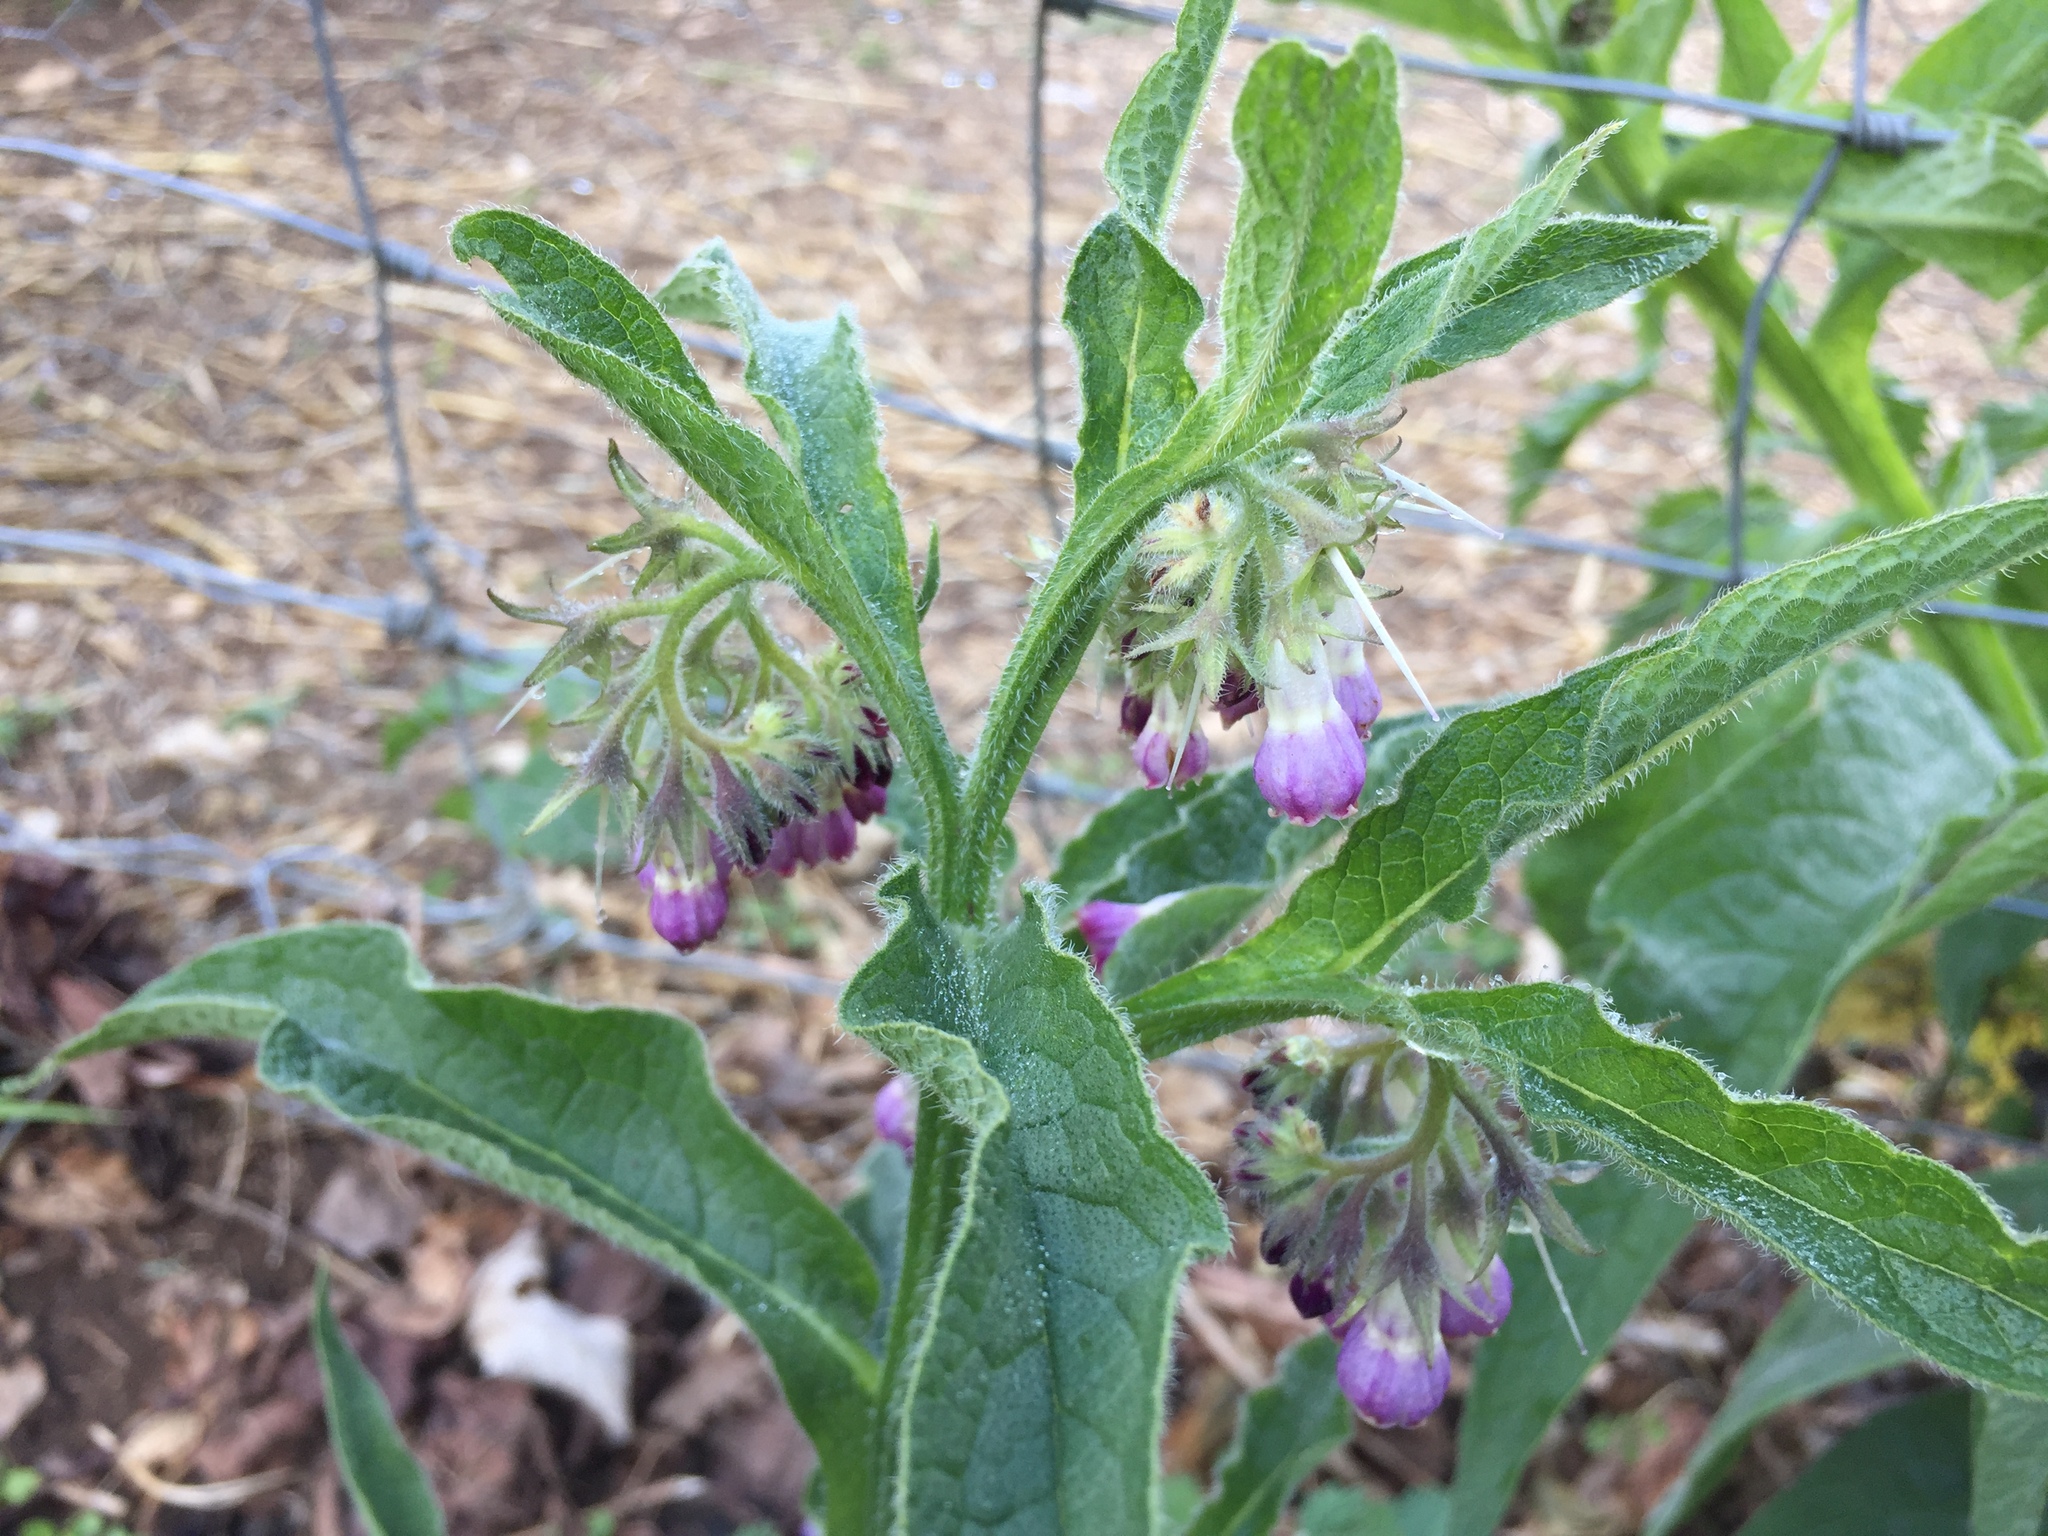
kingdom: Plantae
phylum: Tracheophyta
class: Magnoliopsida
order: Boraginales
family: Boraginaceae
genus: Symphytum
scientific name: Symphytum officinale
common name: Common comfrey
